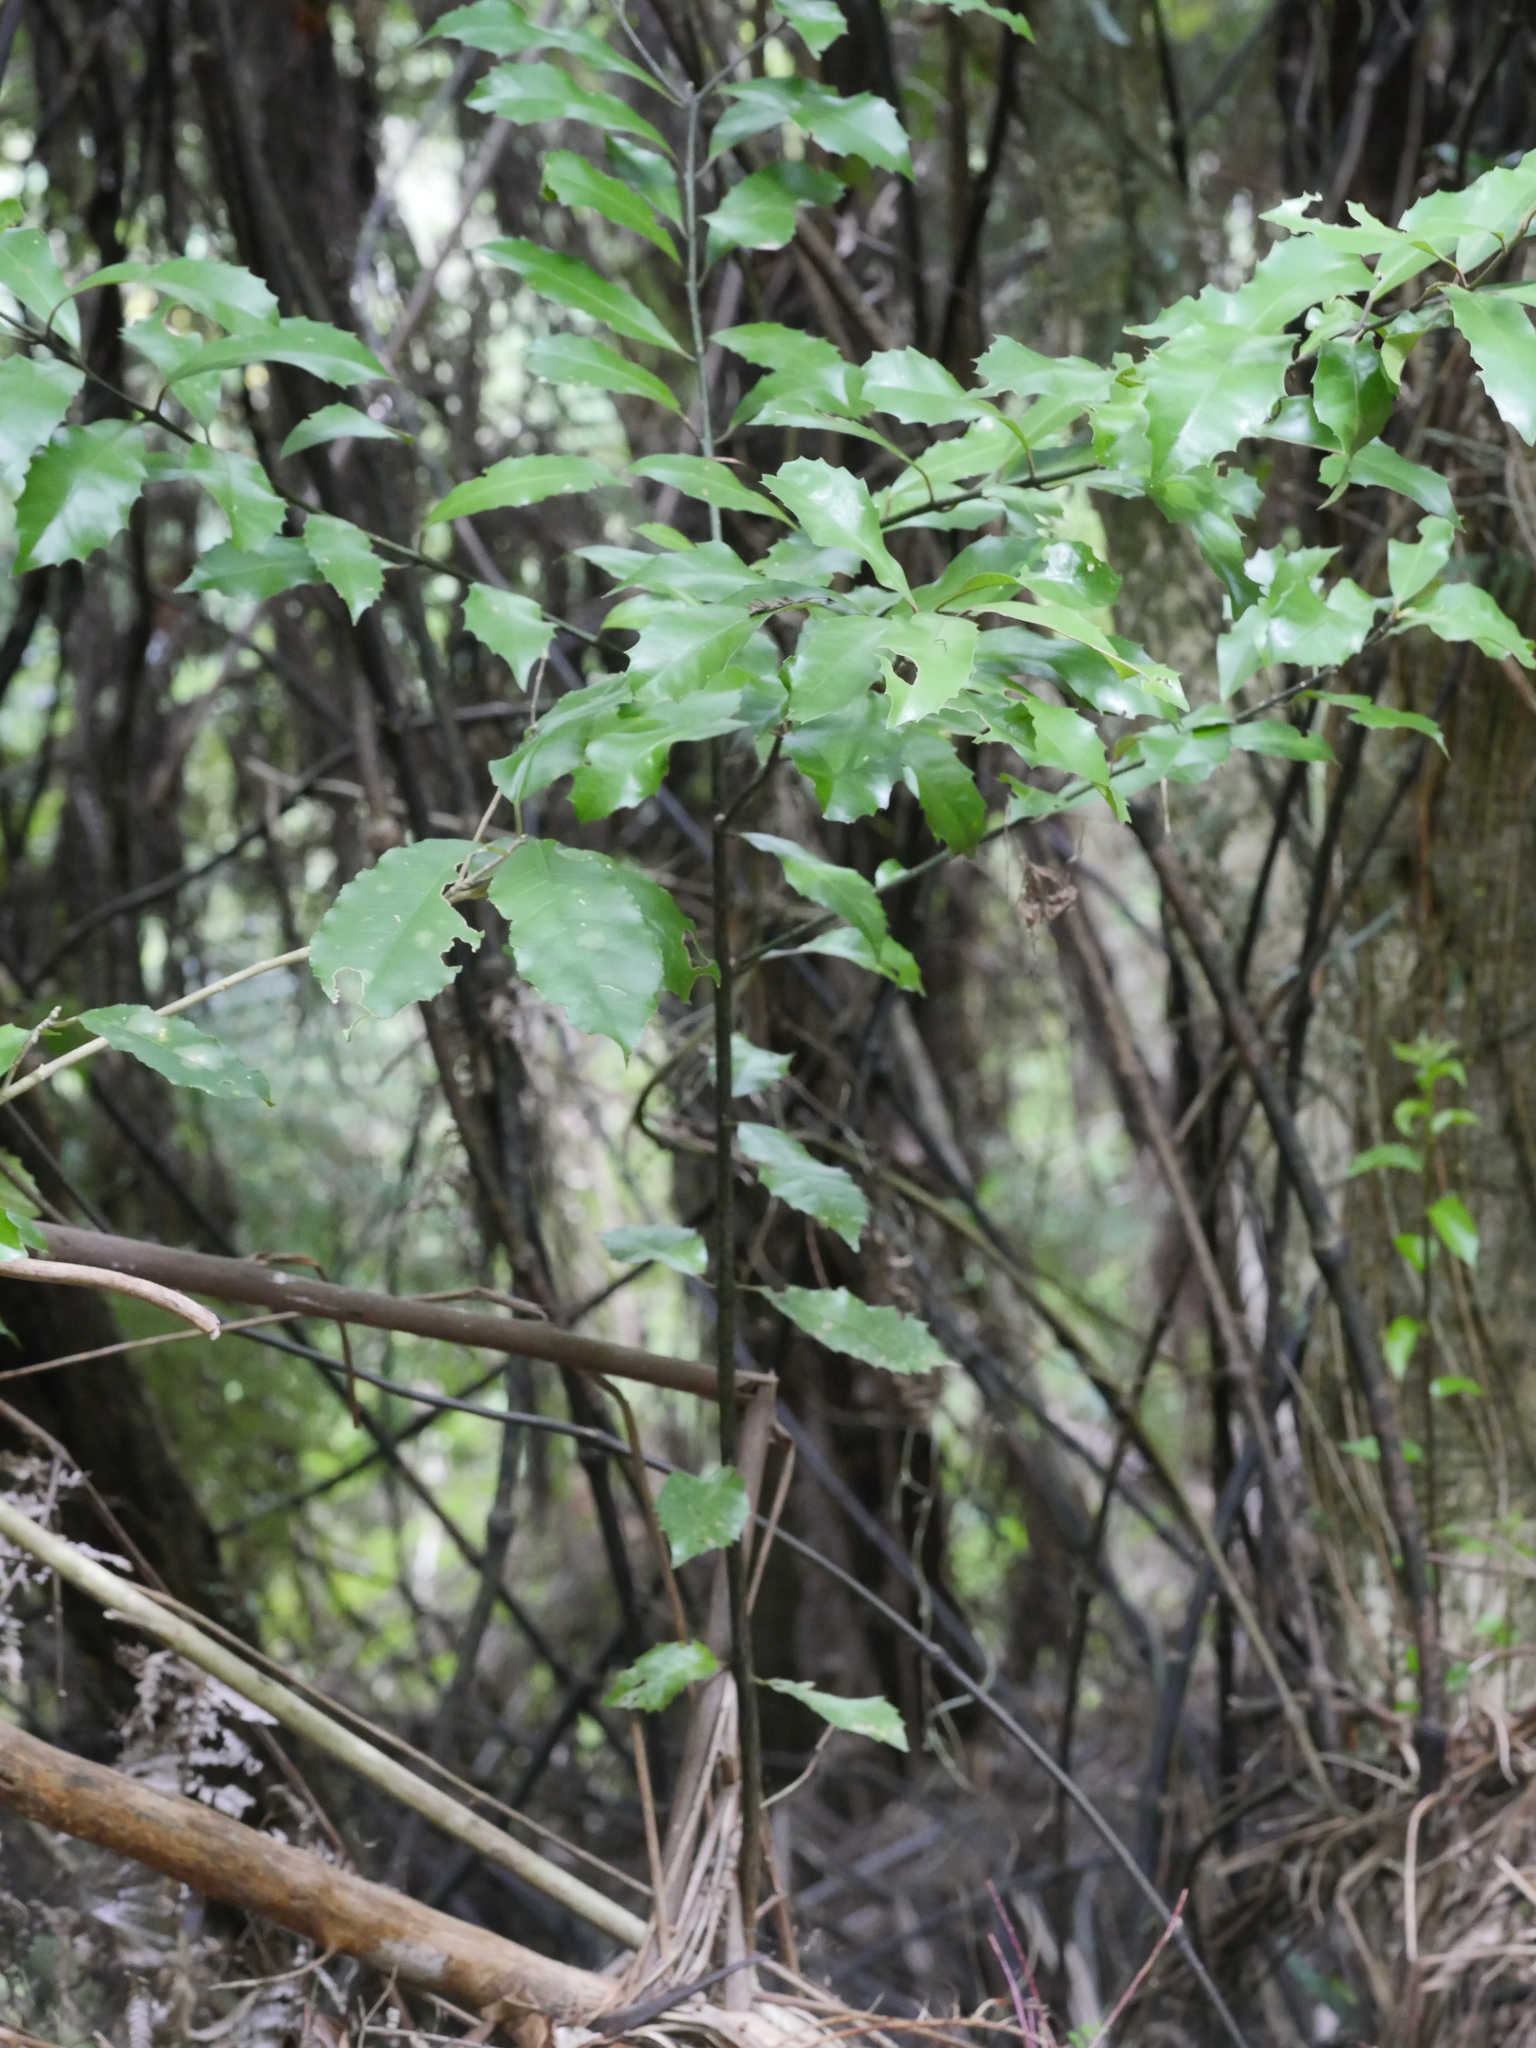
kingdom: Plantae
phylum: Tracheophyta
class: Magnoliopsida
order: Laurales
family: Monimiaceae
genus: Hedycarya
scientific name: Hedycarya arborea
